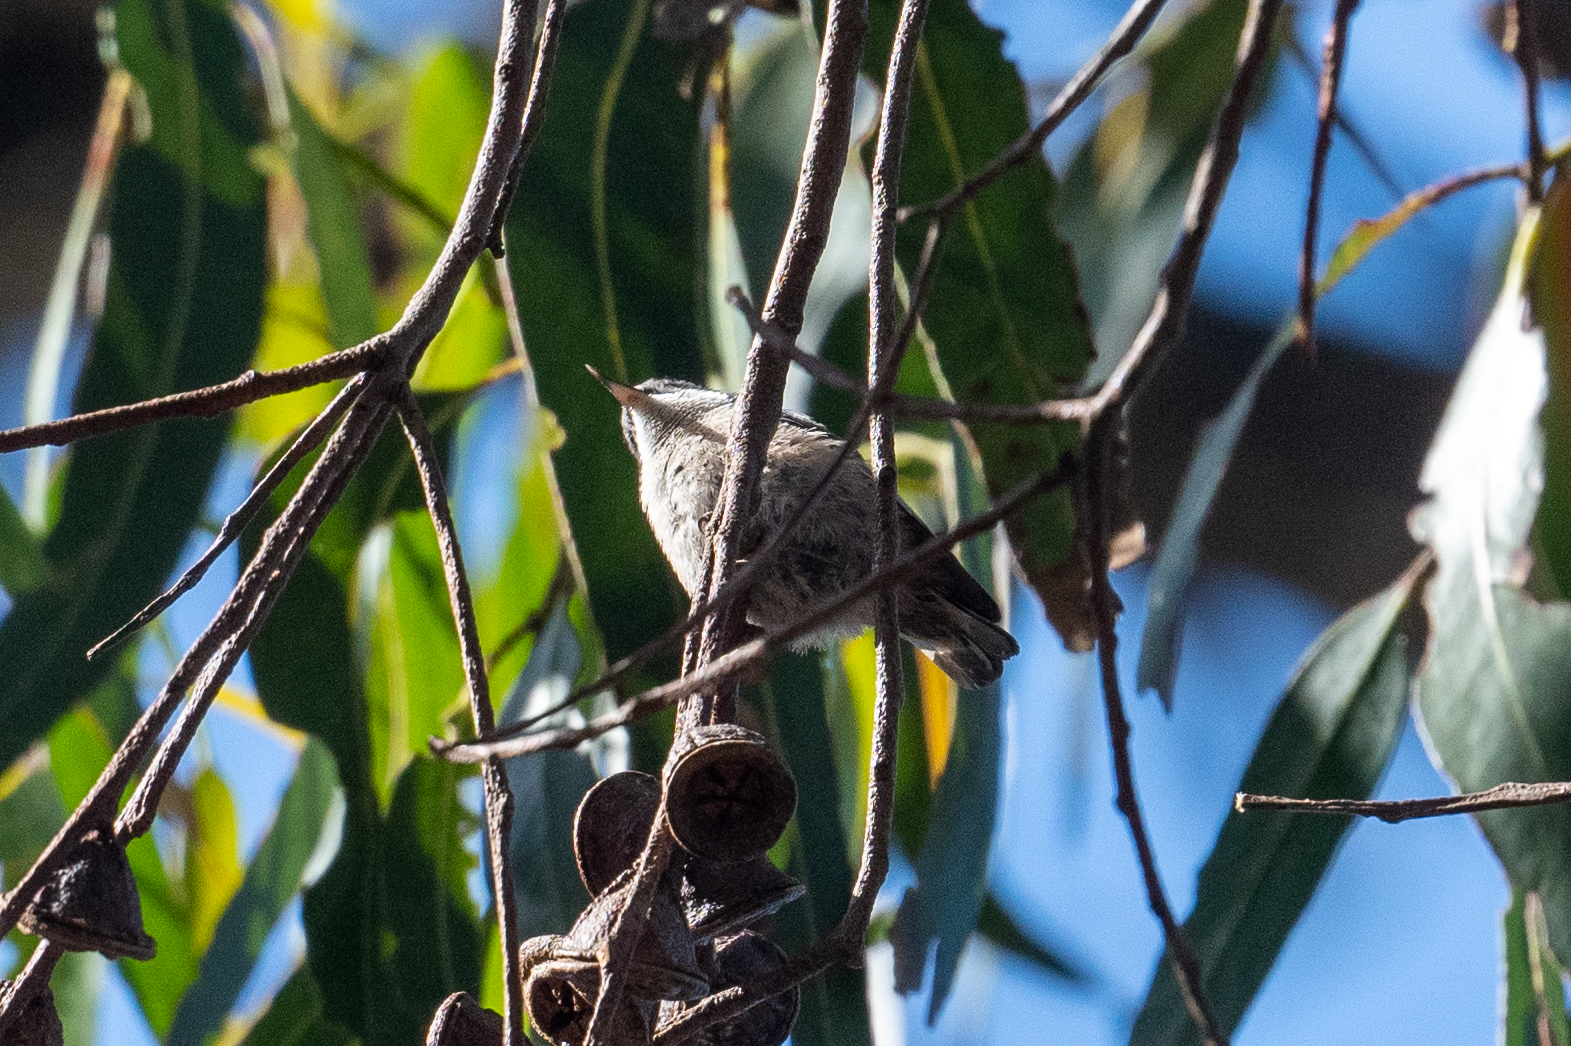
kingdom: Animalia
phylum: Chordata
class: Aves
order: Passeriformes
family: Sittidae
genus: Sitta
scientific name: Sitta pygmaea
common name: Pygmy nuthatch
